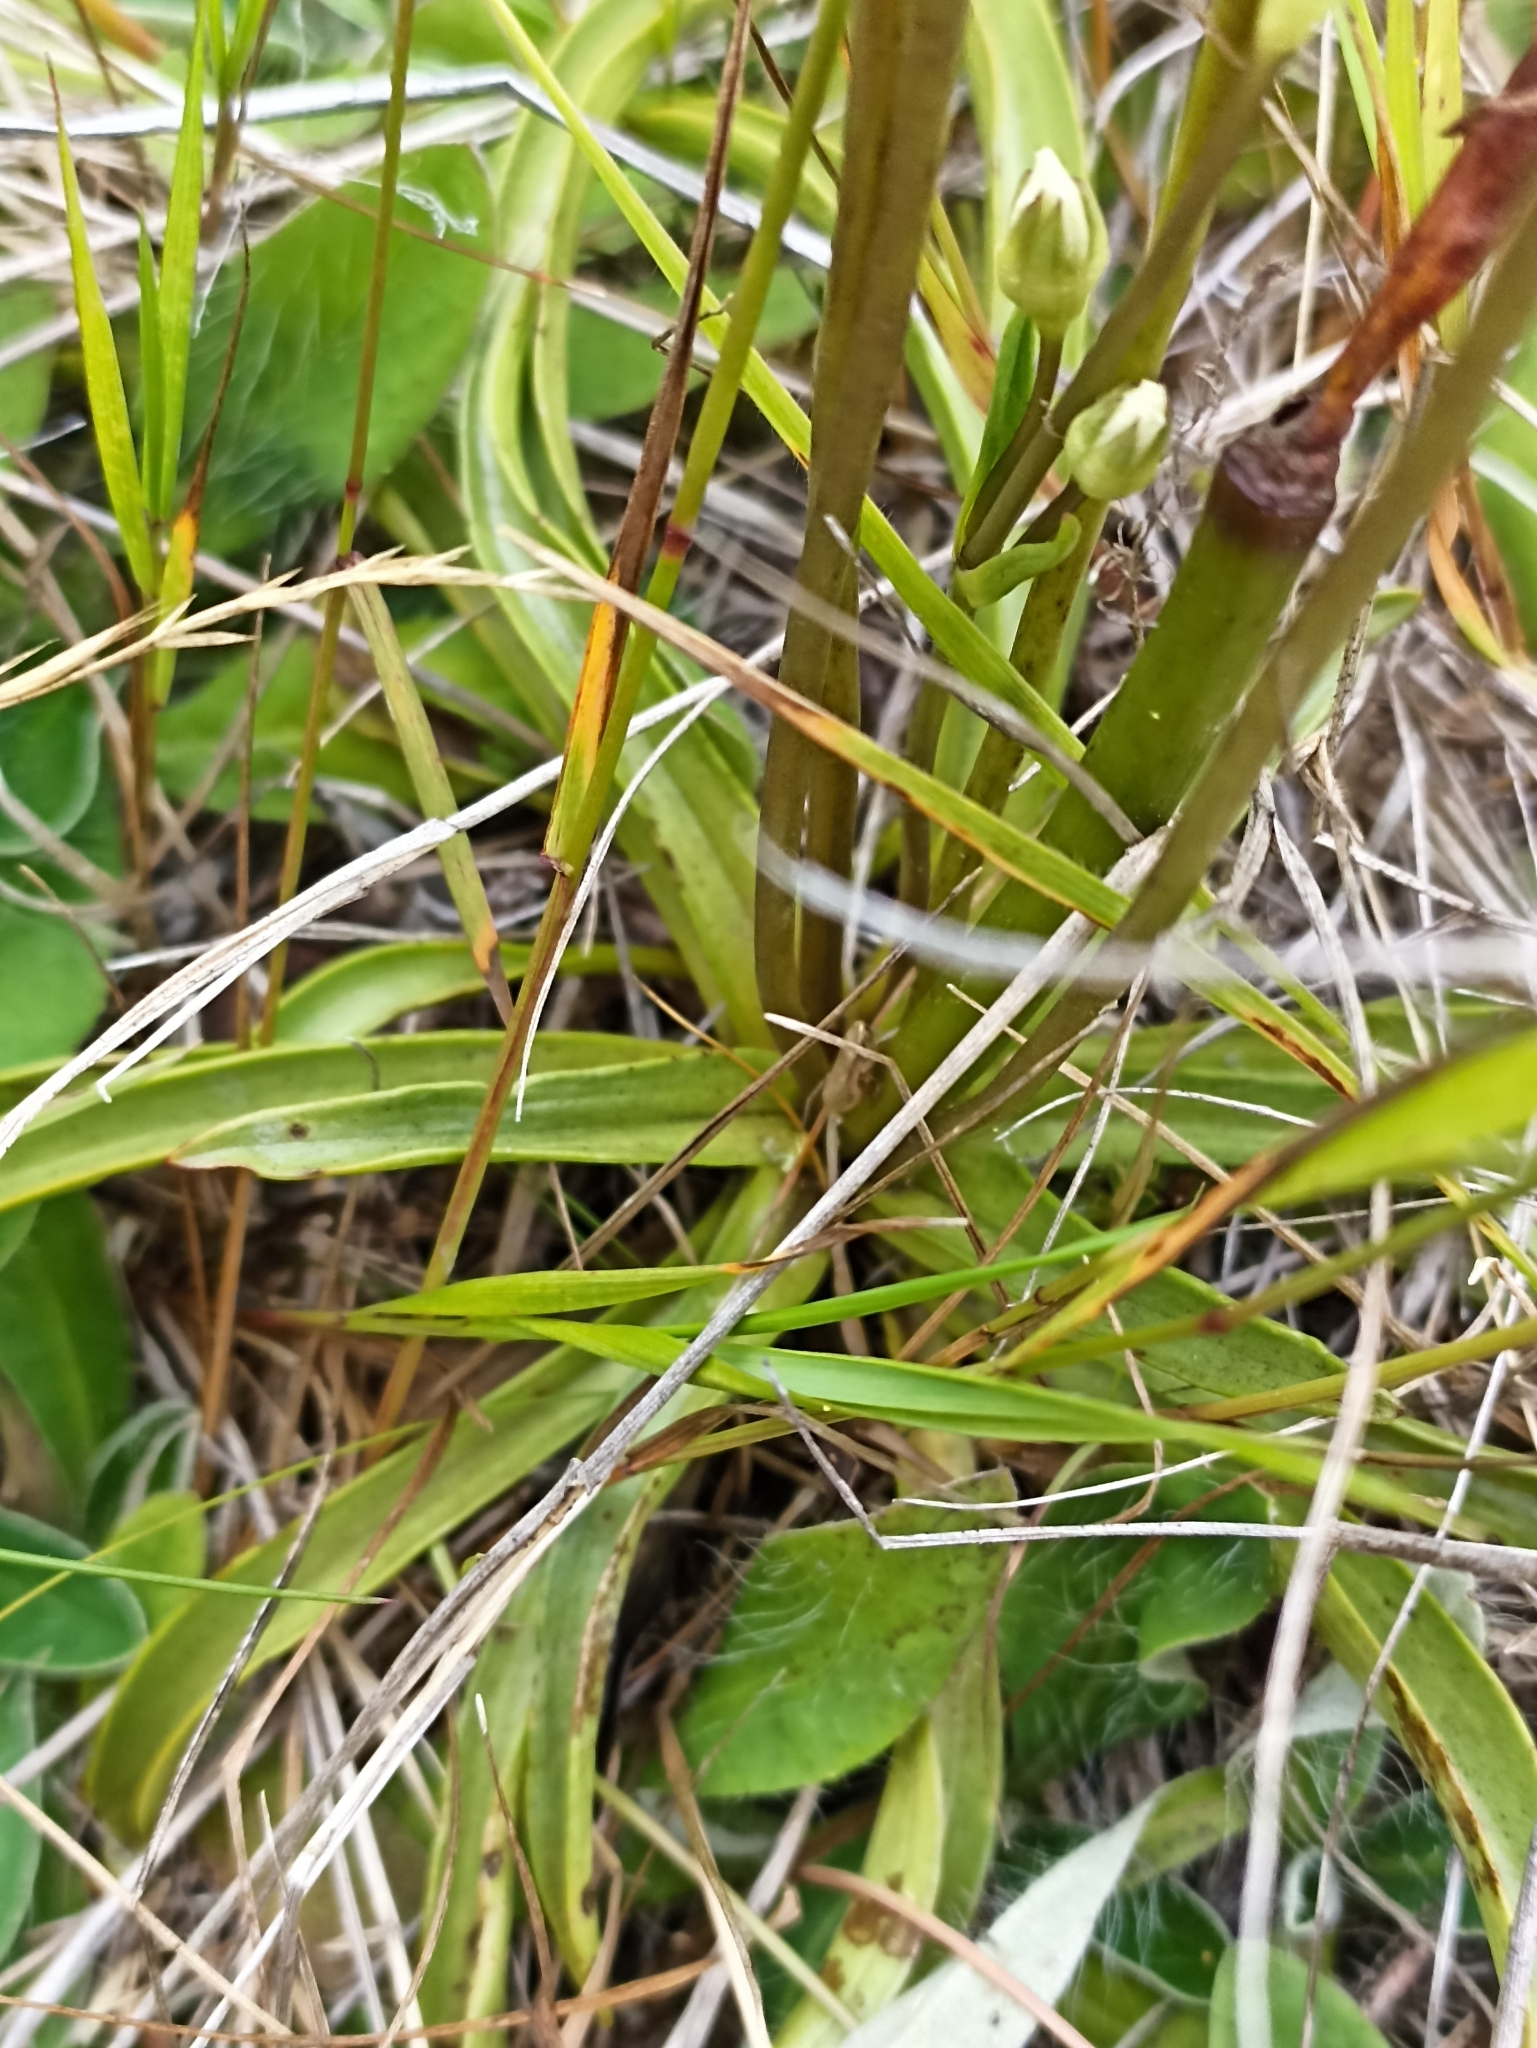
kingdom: Plantae
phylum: Tracheophyta
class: Magnoliopsida
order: Gentianales
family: Gentianaceae
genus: Gentianella
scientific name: Gentianella corymbifera
